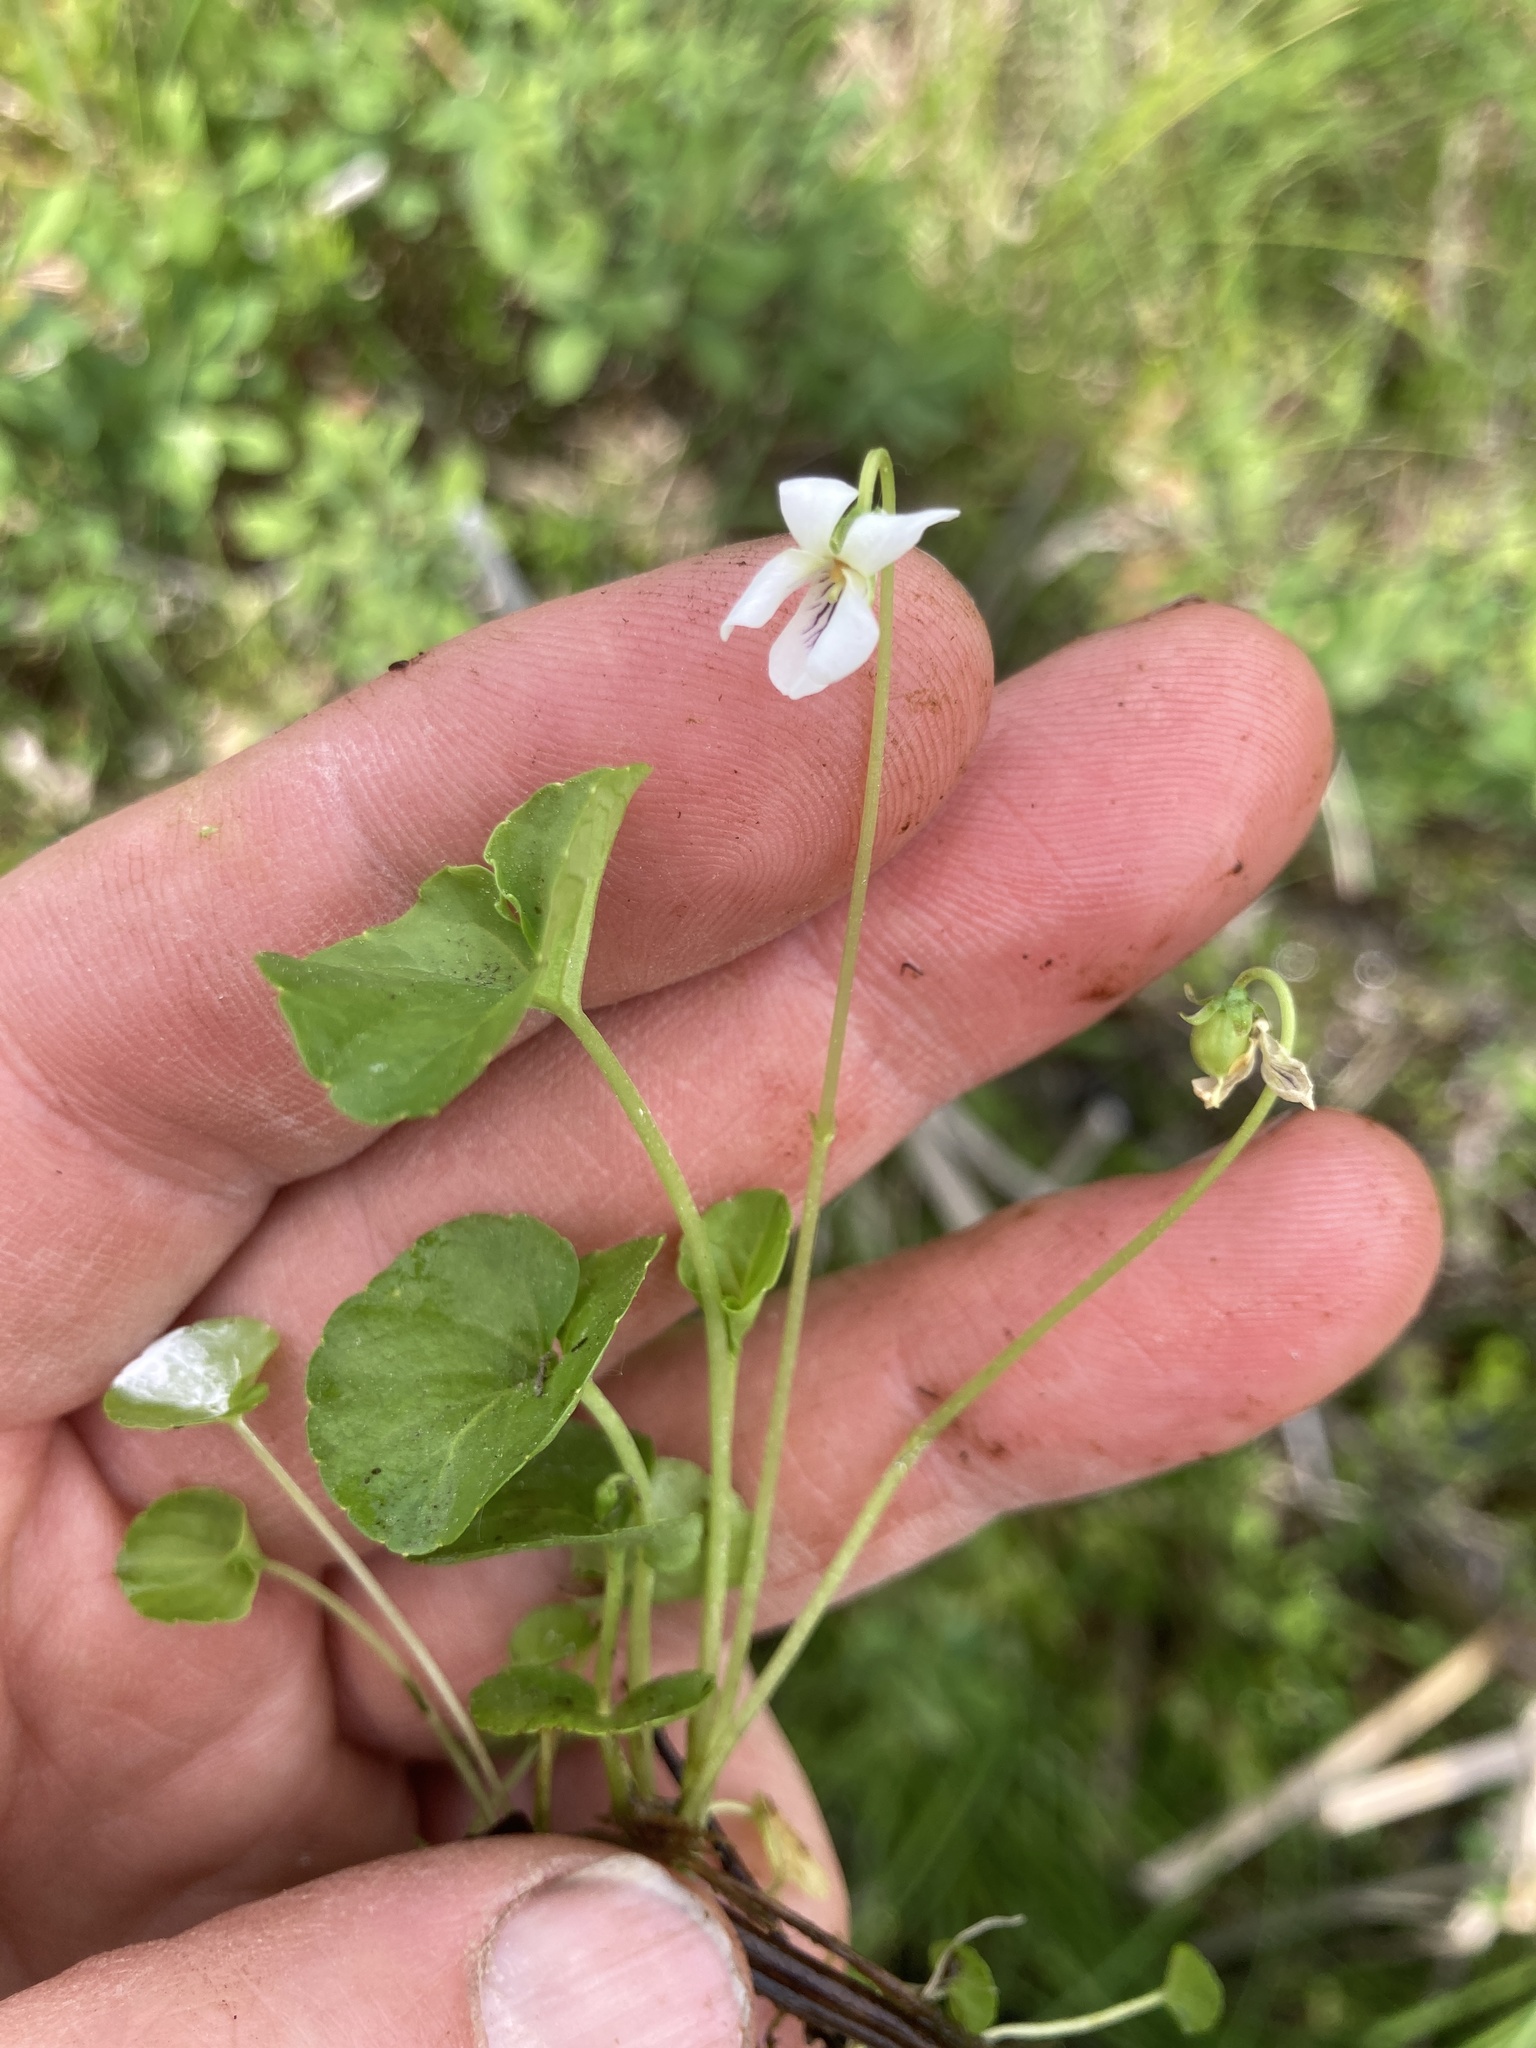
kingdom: Plantae
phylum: Tracheophyta
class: Magnoliopsida
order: Malpighiales
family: Violaceae
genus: Viola
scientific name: Viola minuscula
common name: Northern white violet
